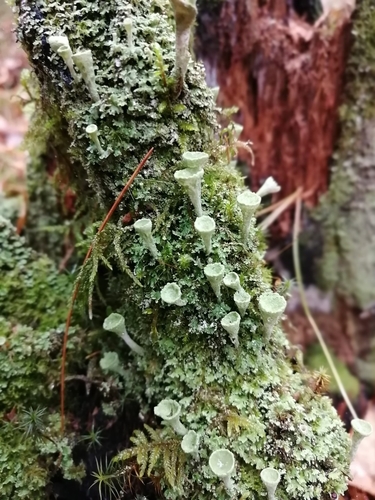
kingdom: Fungi
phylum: Ascomycota
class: Lecanoromycetes
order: Lecanorales
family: Cladoniaceae
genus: Cladonia
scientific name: Cladonia fimbriata
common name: Powdered trumpet lichen
